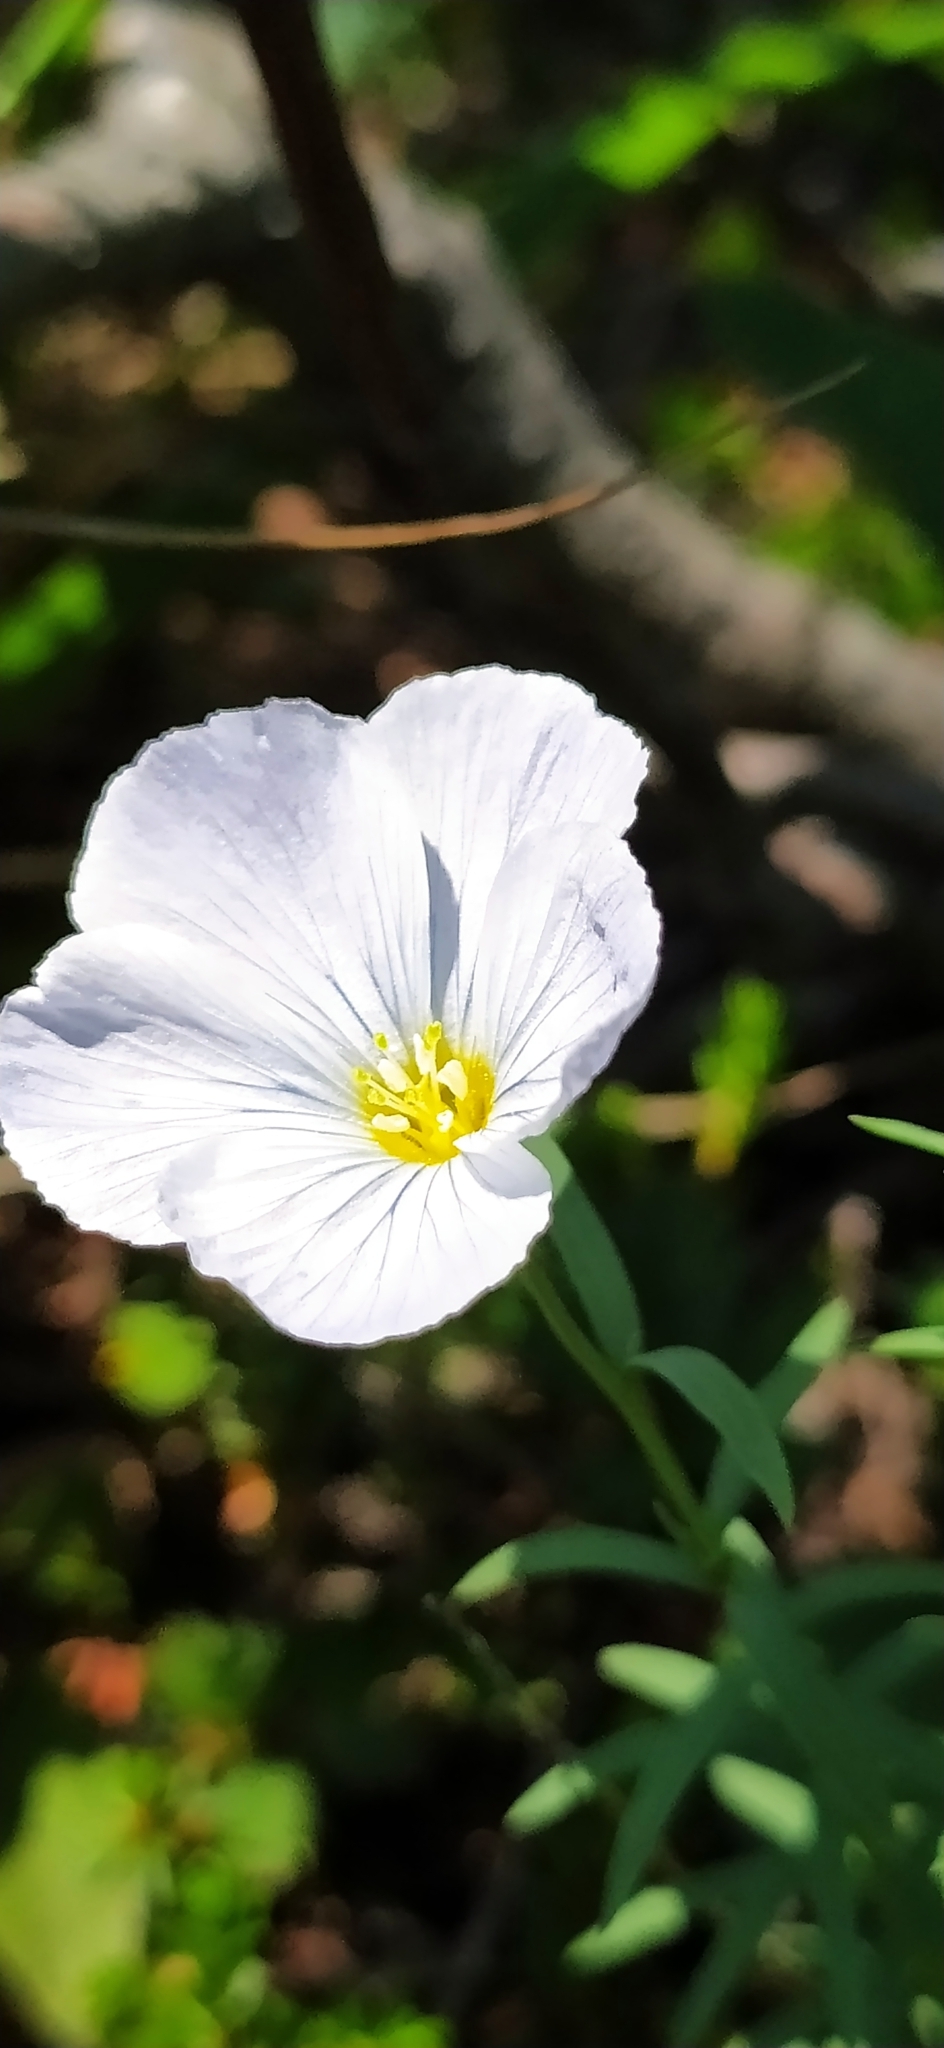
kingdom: Plantae
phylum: Tracheophyta
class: Magnoliopsida
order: Malpighiales
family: Linaceae
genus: Linum
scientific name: Linum komarovii
